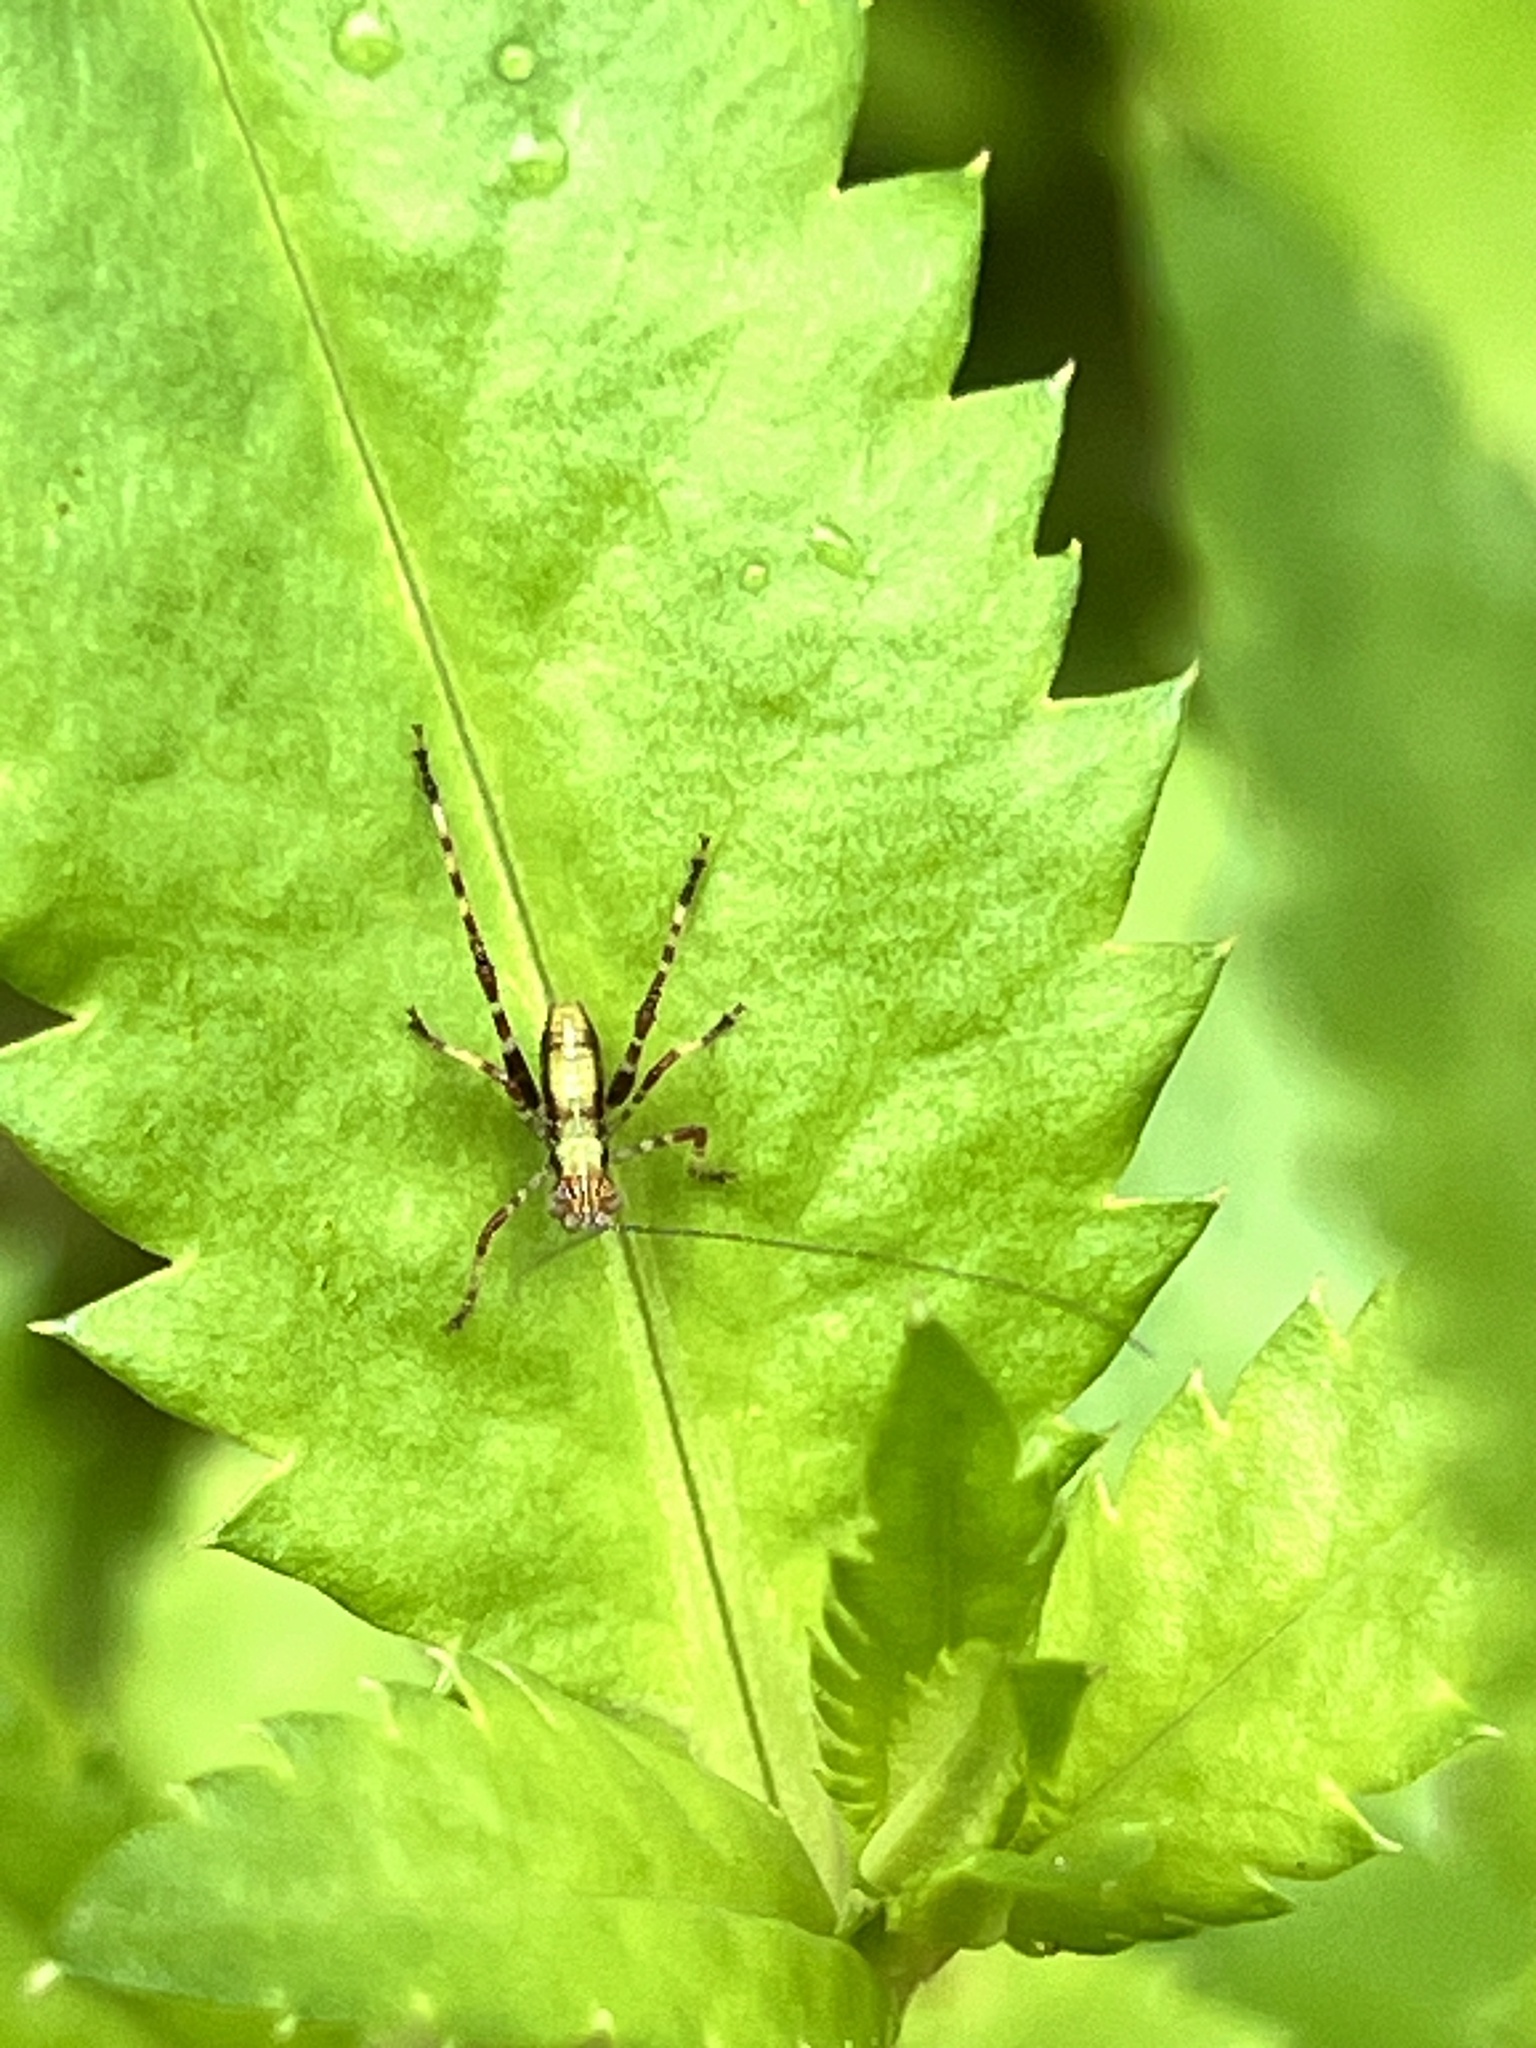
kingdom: Animalia
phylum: Arthropoda
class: Insecta
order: Orthoptera
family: Tettigoniidae
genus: Caedicia
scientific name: Caedicia simplex
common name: Common garden katydid
